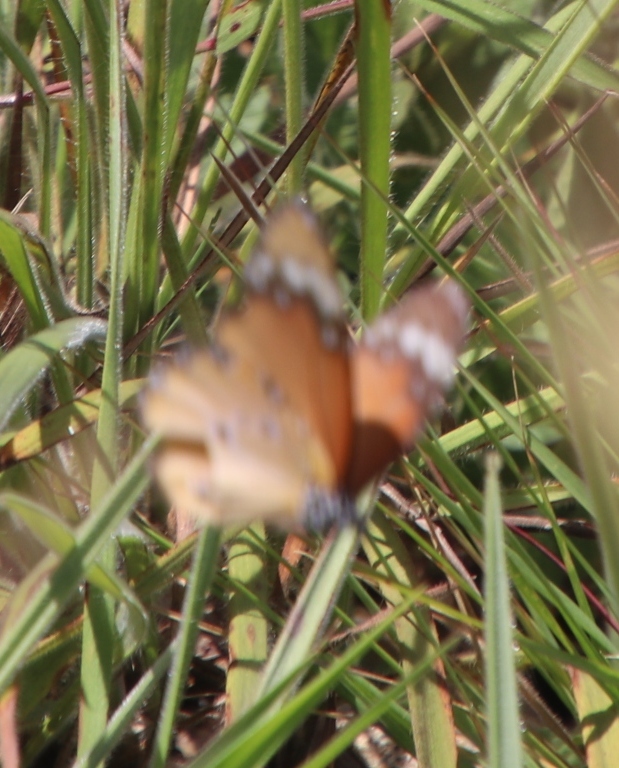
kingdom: Animalia
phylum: Arthropoda
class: Insecta
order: Lepidoptera
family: Nymphalidae
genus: Danaus
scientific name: Danaus chrysippus
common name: Plain tiger
